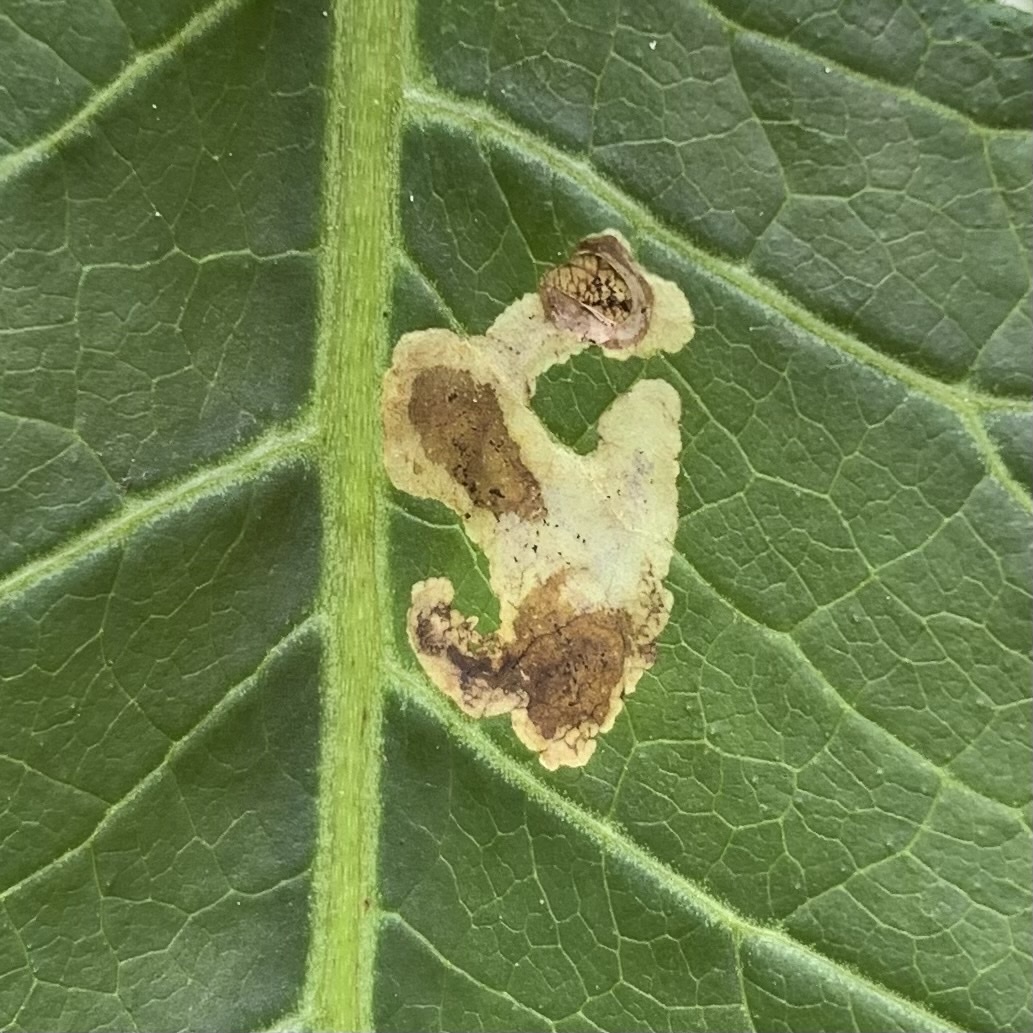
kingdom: Animalia
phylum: Arthropoda
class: Insecta
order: Diptera
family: Agromyzidae
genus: Liriomyza
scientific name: Liriomyza taraxaci
